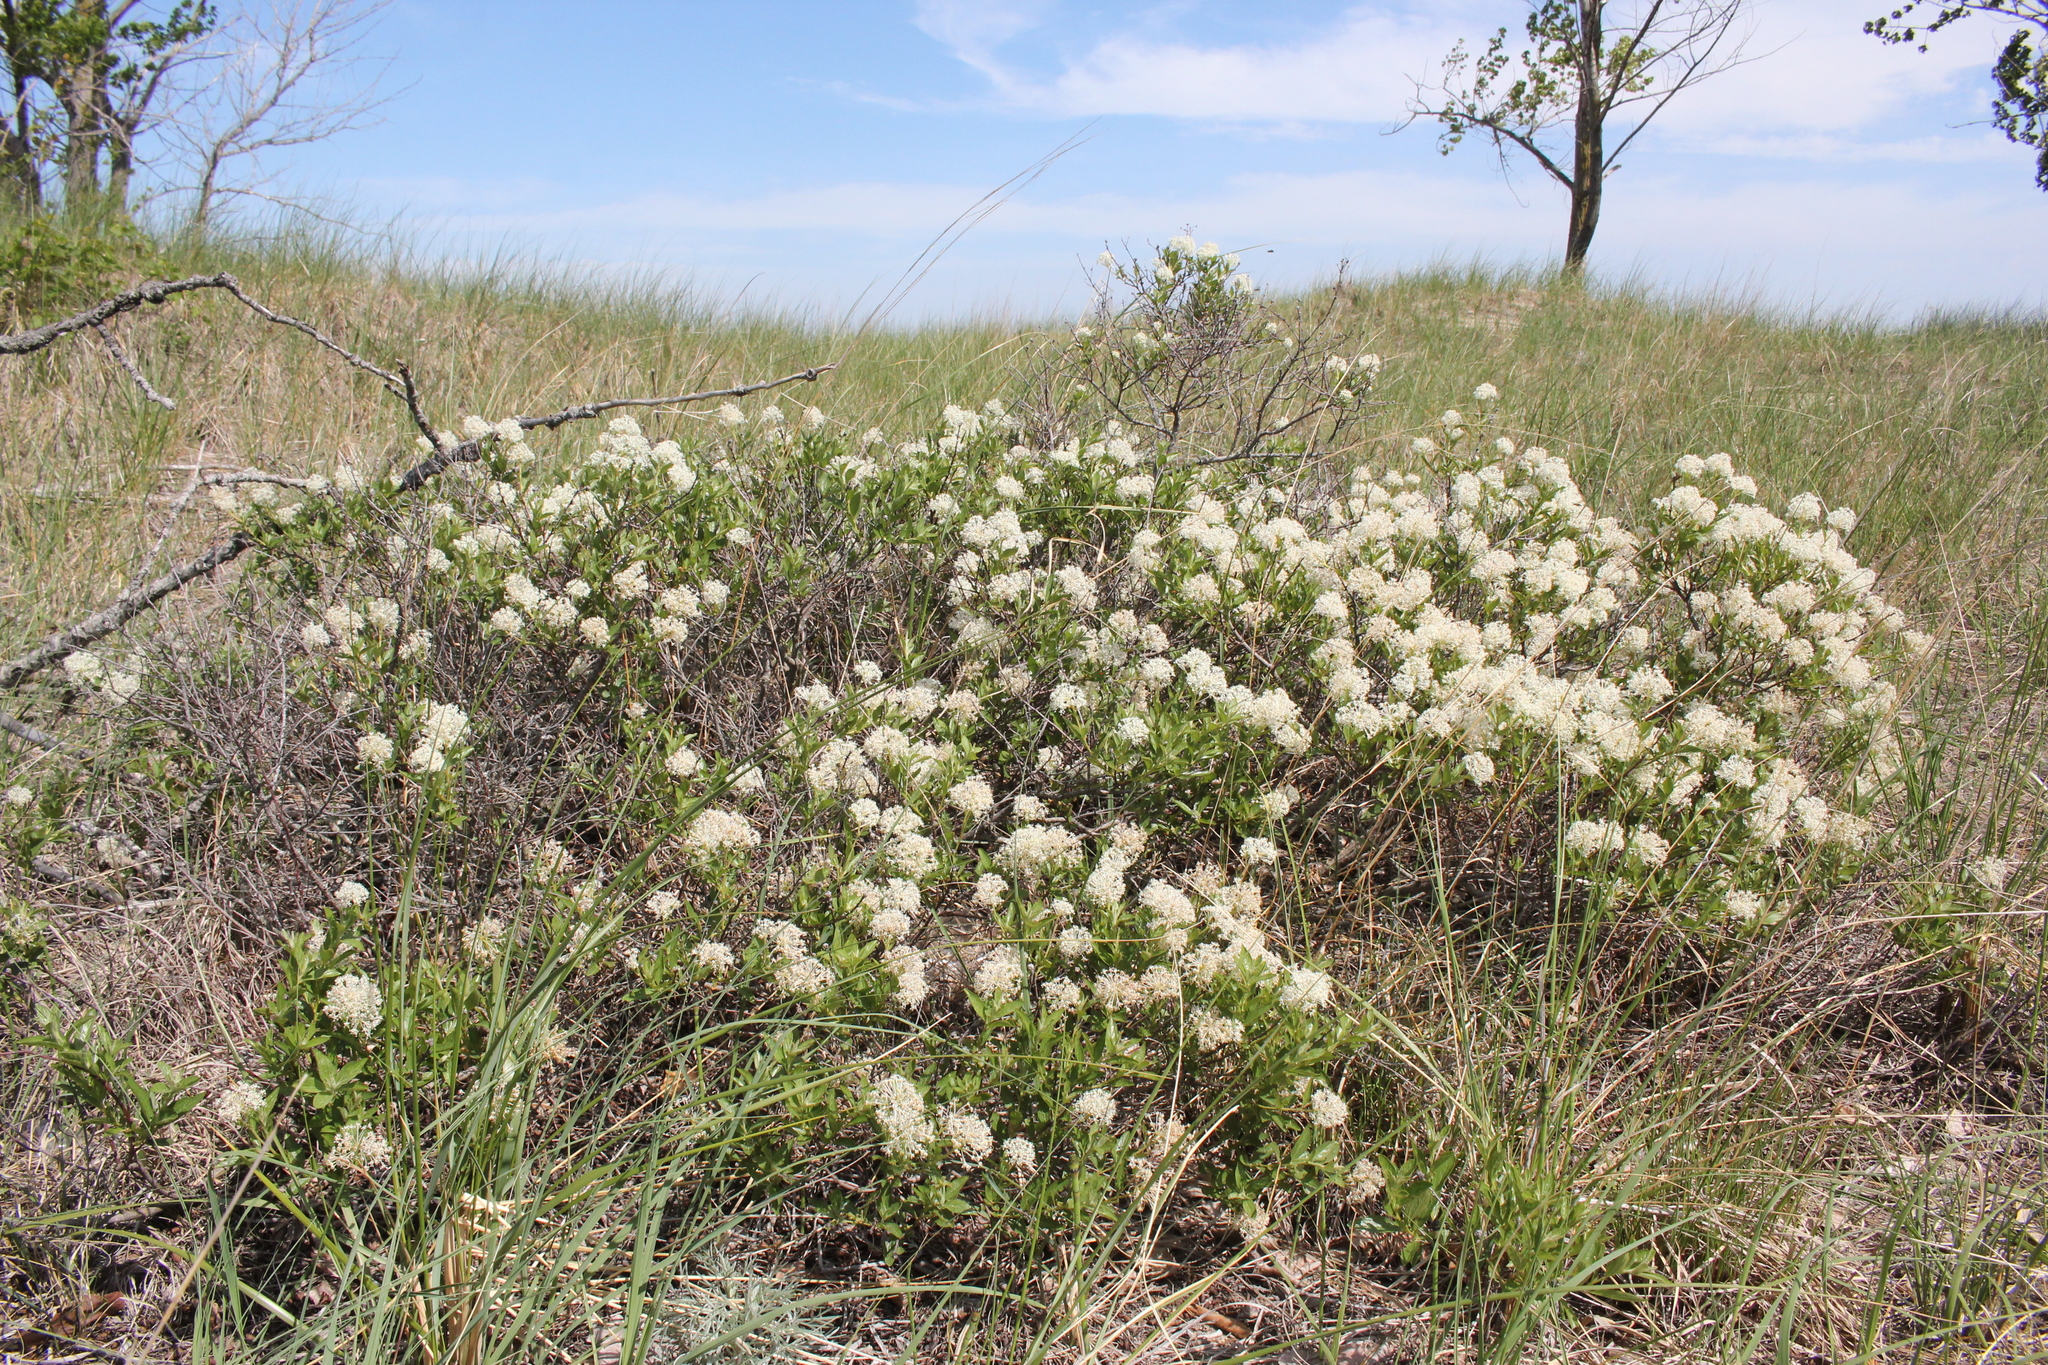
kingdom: Plantae
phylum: Tracheophyta
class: Magnoliopsida
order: Rosales
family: Rhamnaceae
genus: Ceanothus
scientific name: Ceanothus herbaceus
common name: Inland ceanothus
